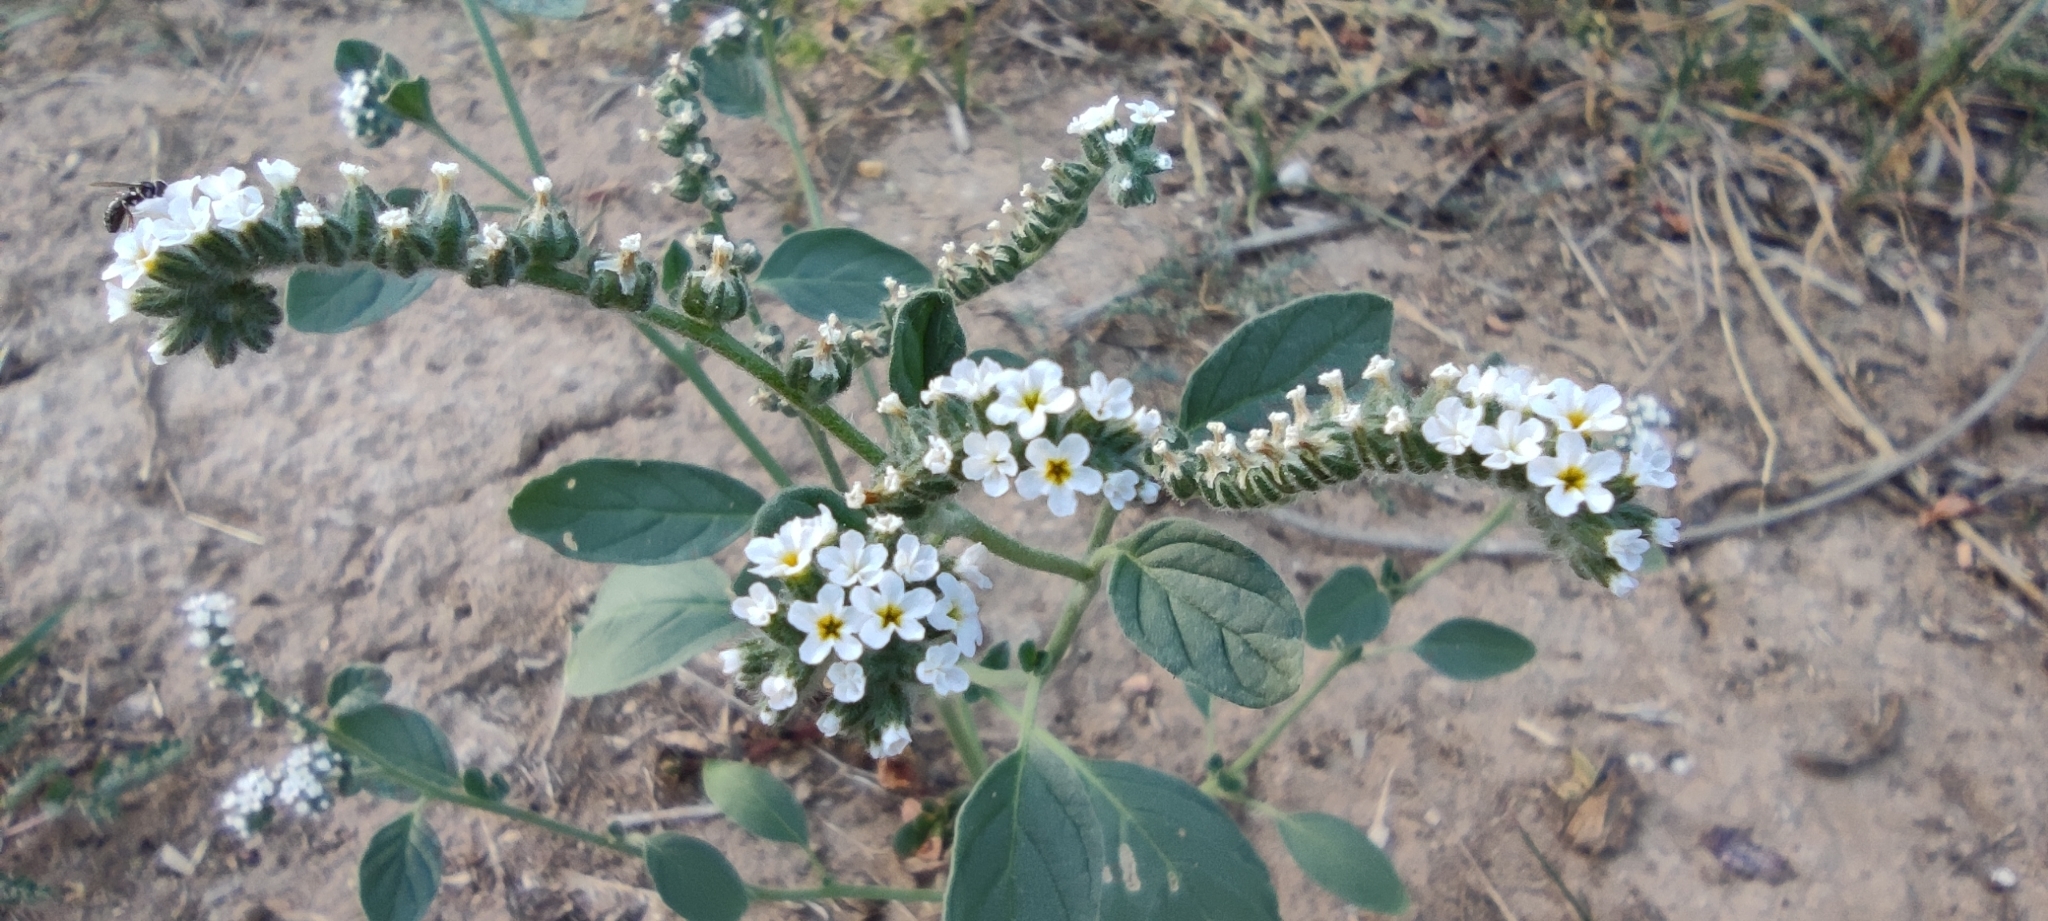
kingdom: Plantae
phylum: Tracheophyta
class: Magnoliopsida
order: Boraginales
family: Heliotropiaceae
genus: Heliotropium
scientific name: Heliotropium europaeum
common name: European heliotrope
